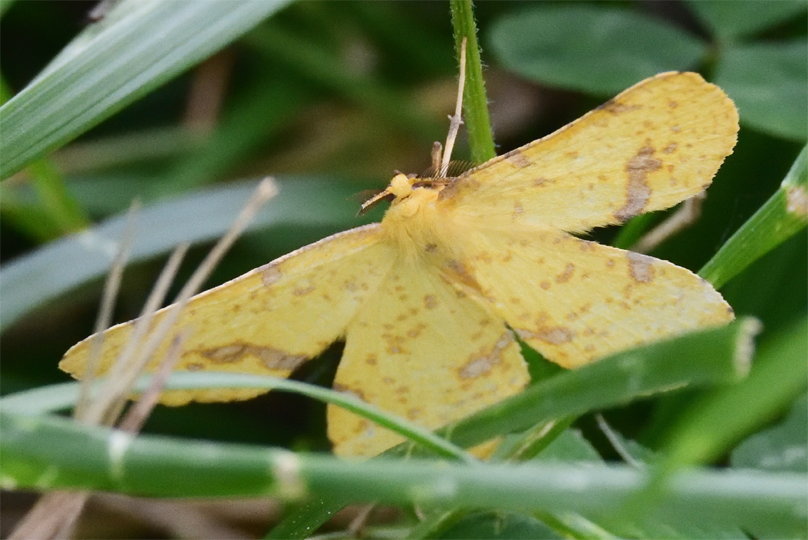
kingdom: Animalia
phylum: Arthropoda
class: Insecta
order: Lepidoptera
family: Geometridae
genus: Xanthotype
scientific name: Xanthotype
